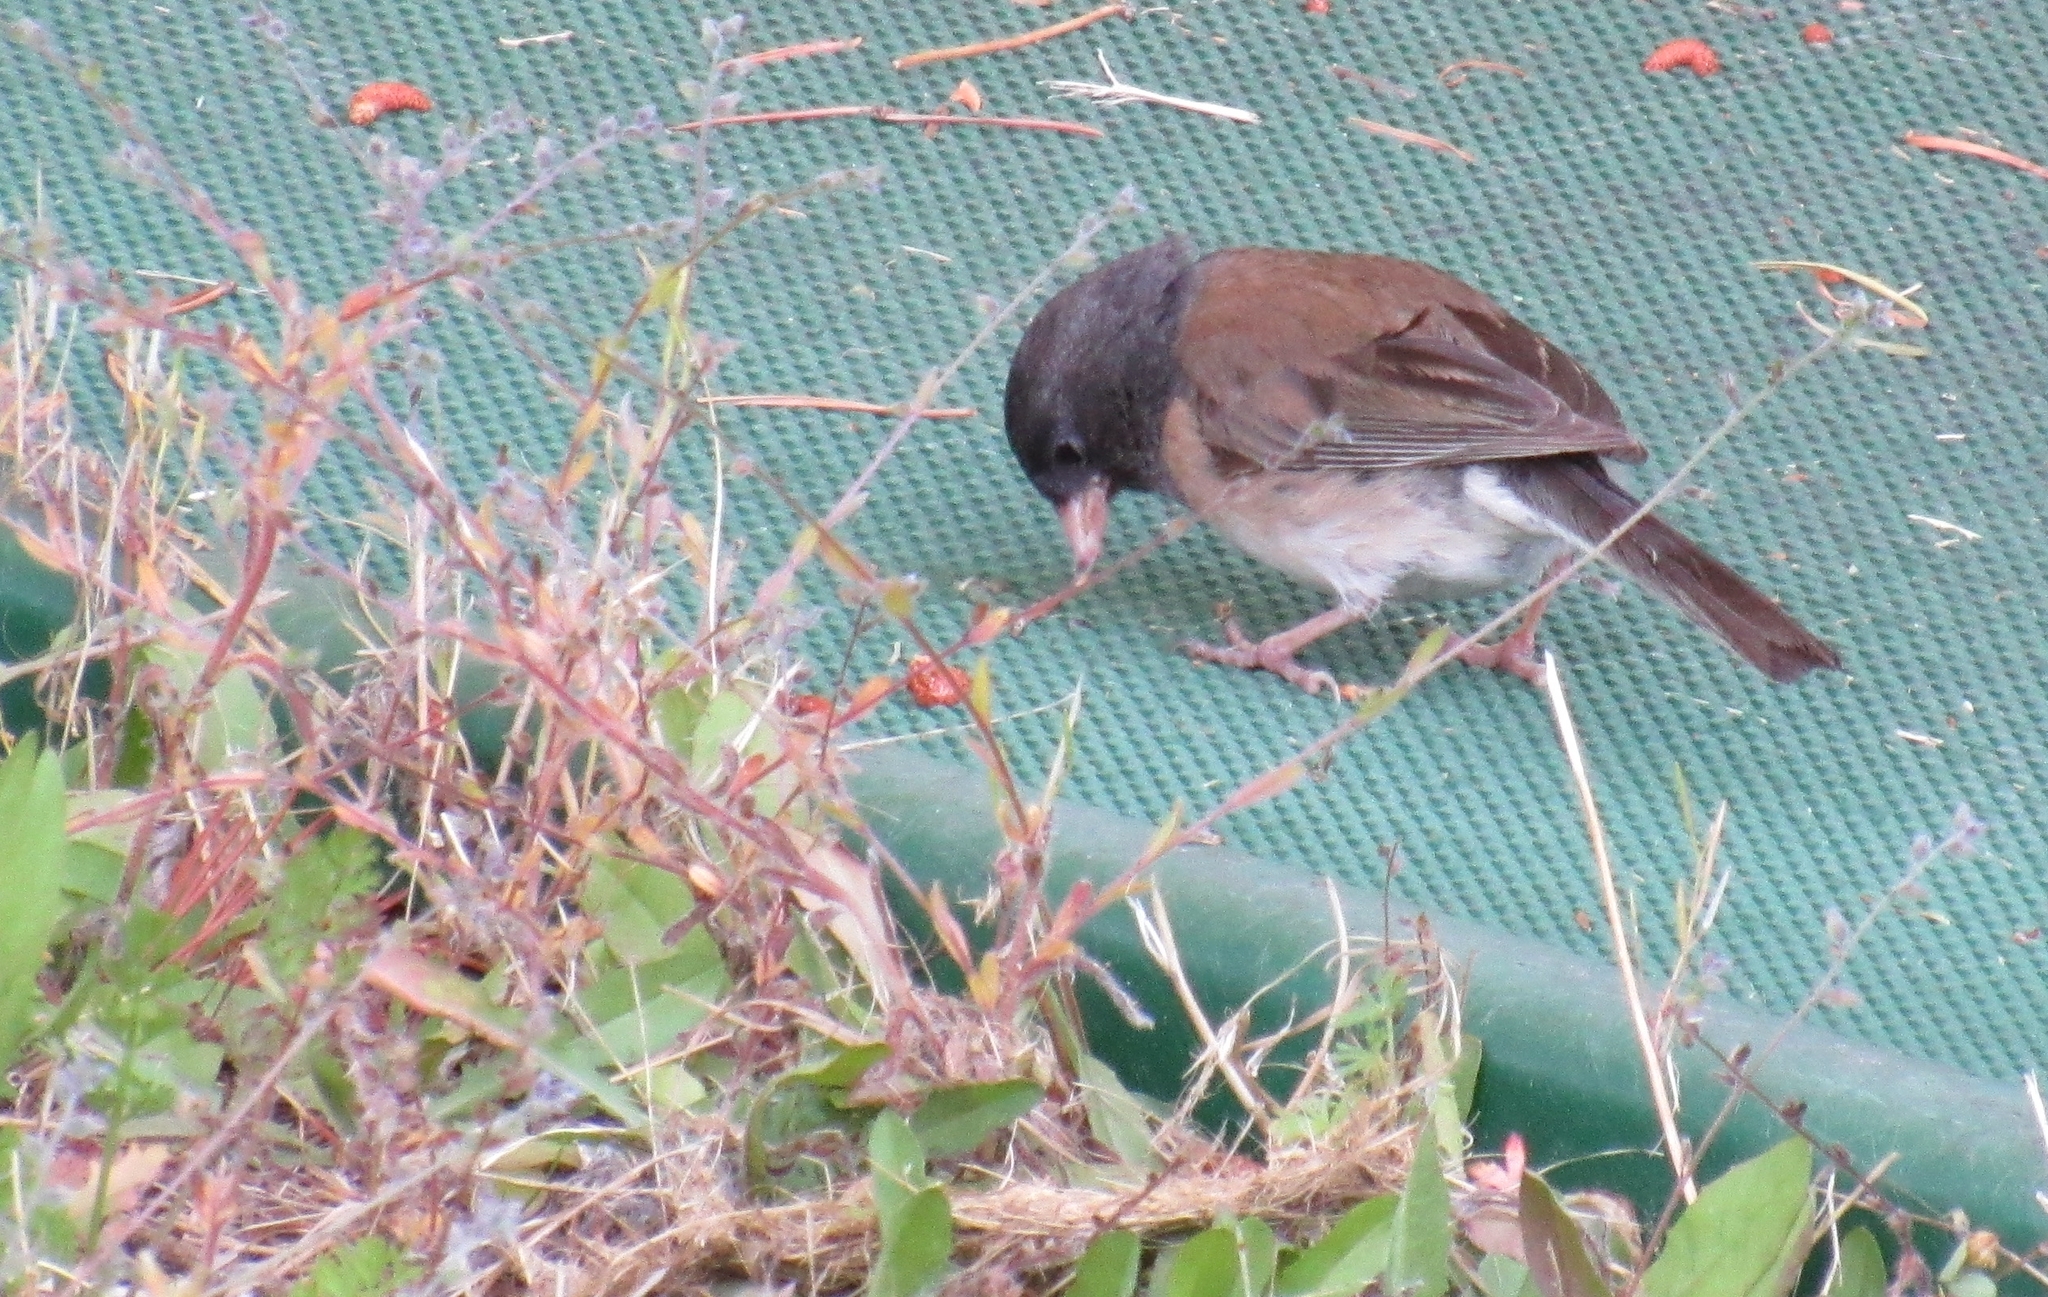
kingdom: Animalia
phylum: Chordata
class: Aves
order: Passeriformes
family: Passerellidae
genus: Junco
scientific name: Junco hyemalis
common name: Dark-eyed junco
